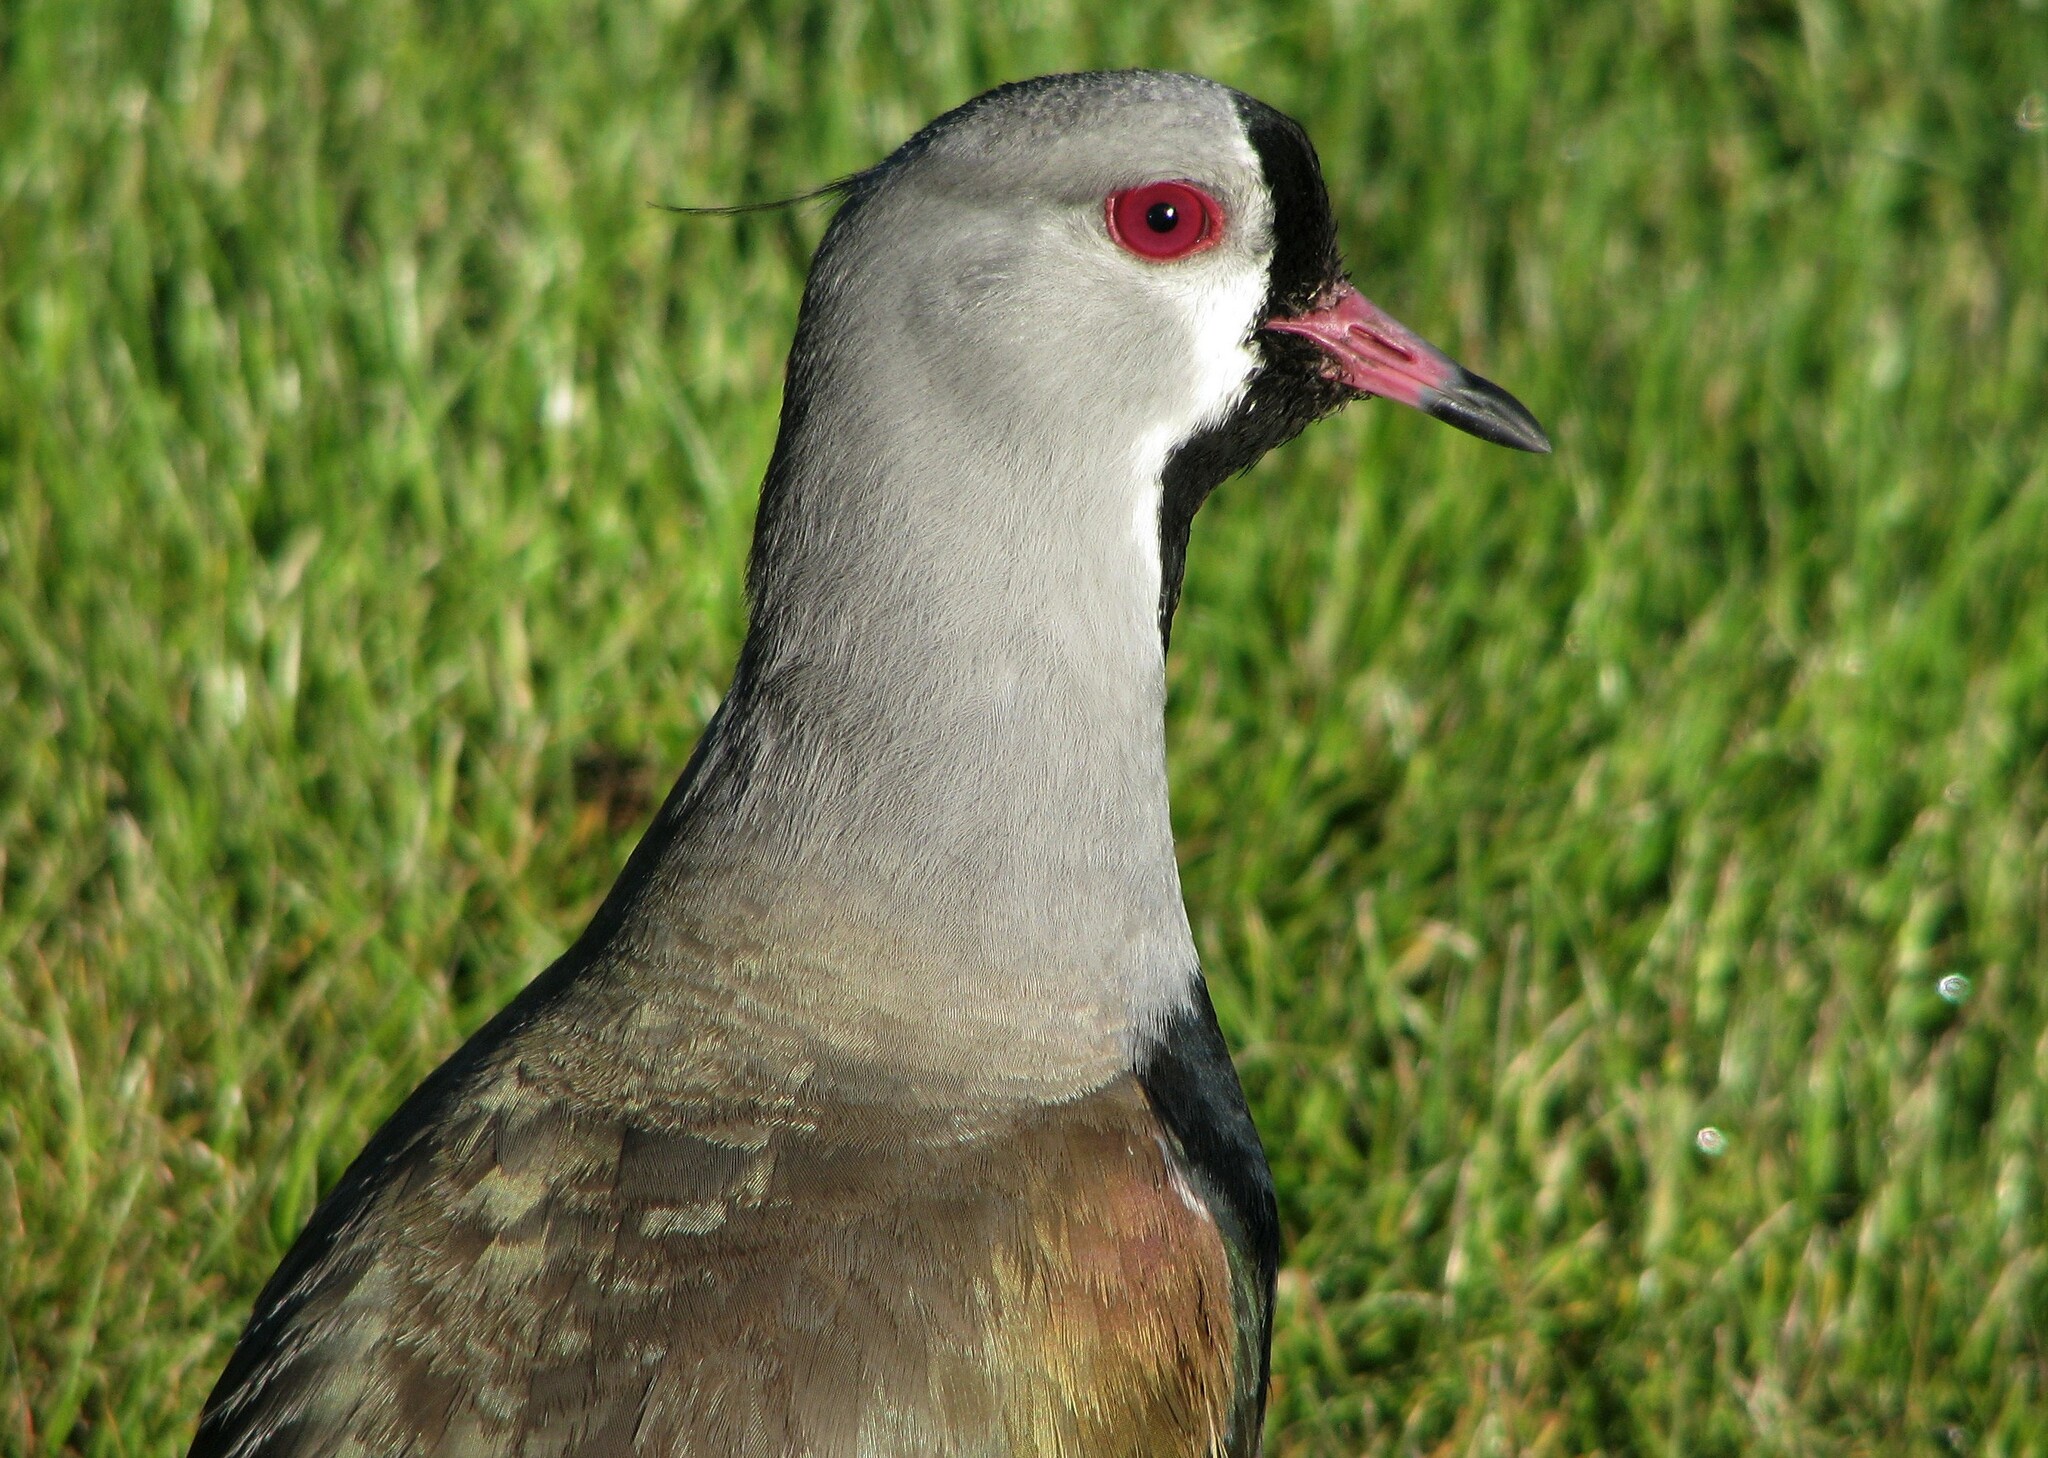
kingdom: Animalia
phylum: Chordata
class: Aves
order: Charadriiformes
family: Charadriidae
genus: Vanellus
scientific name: Vanellus chilensis
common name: Southern lapwing
